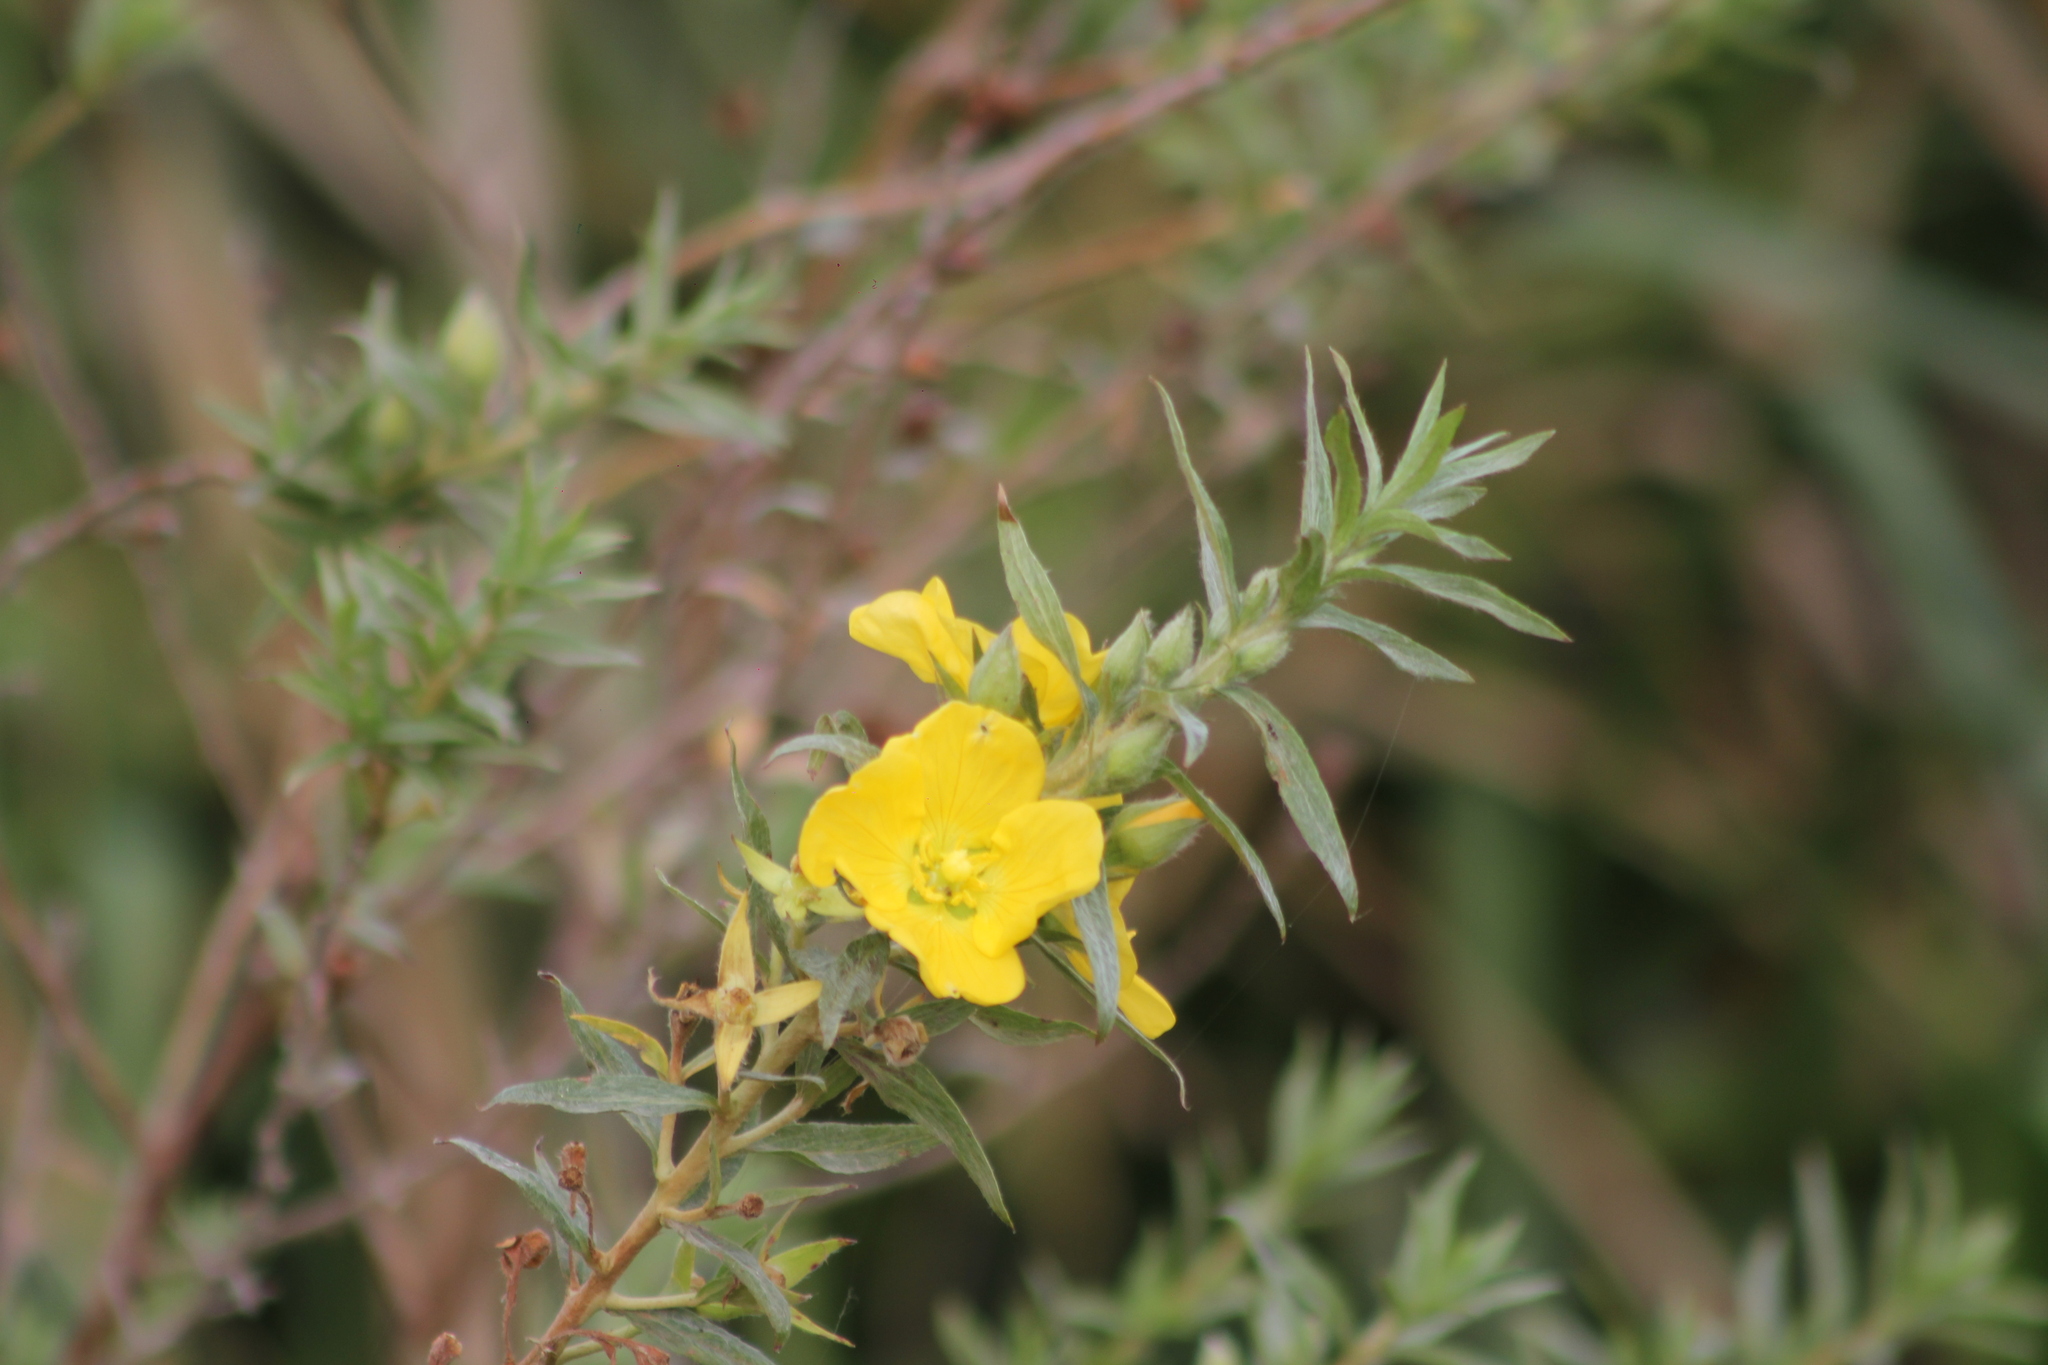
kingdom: Plantae
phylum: Tracheophyta
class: Magnoliopsida
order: Myrtales
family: Onagraceae
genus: Ludwigia
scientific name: Ludwigia sericea
